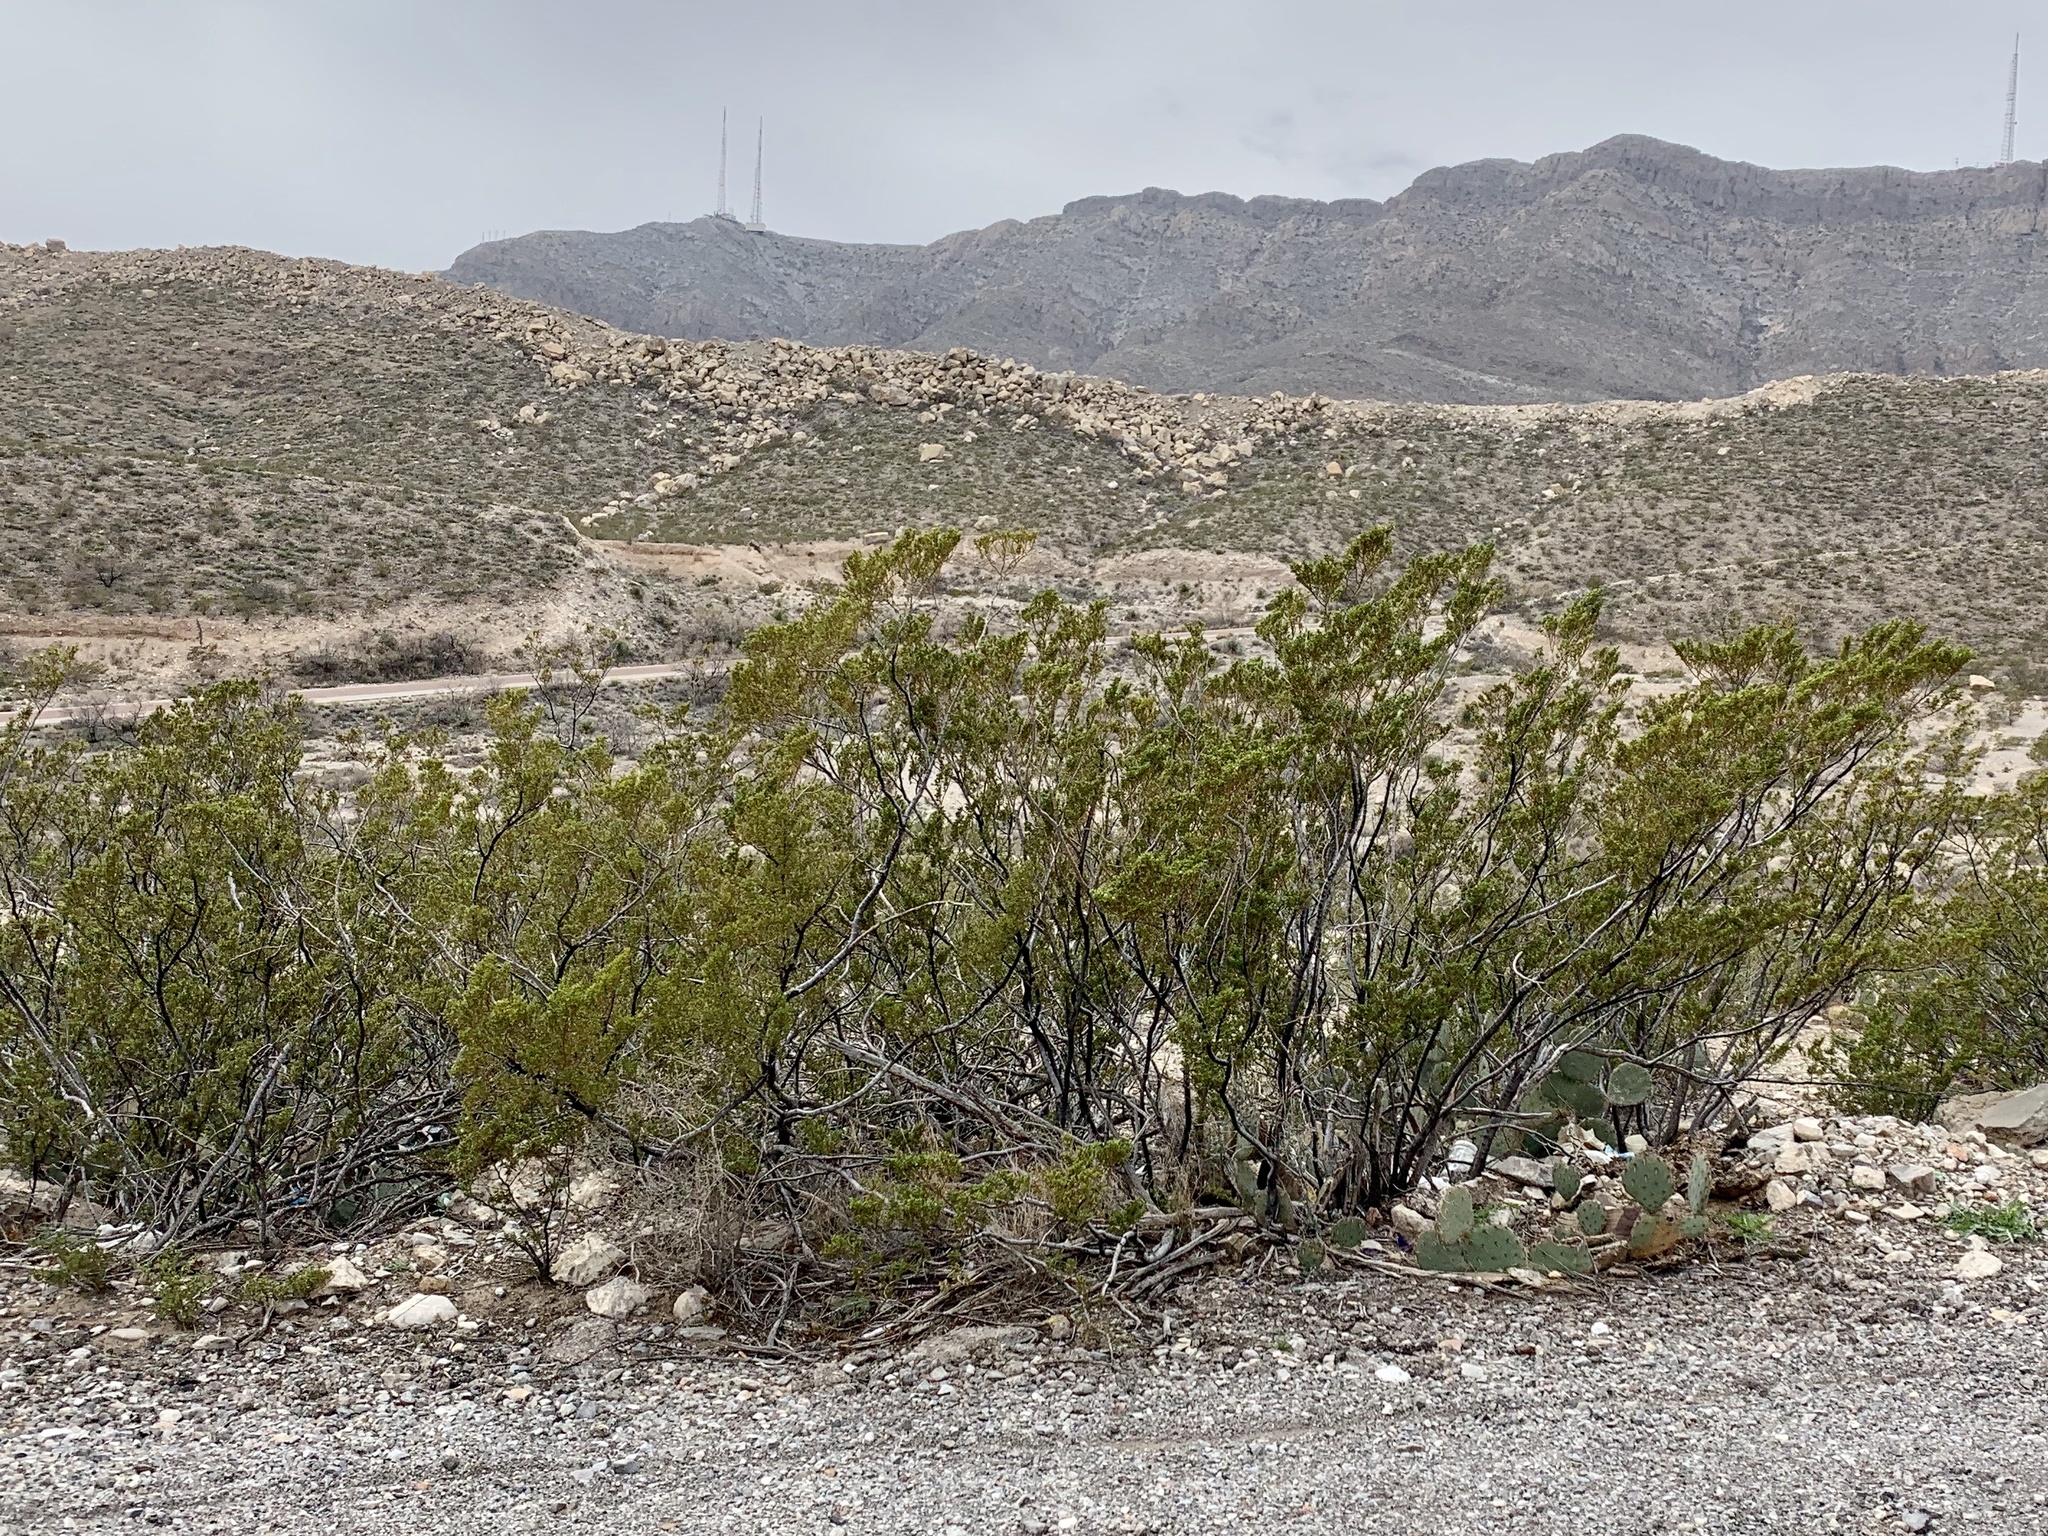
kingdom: Plantae
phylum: Tracheophyta
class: Magnoliopsida
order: Zygophyllales
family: Zygophyllaceae
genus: Larrea
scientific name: Larrea tridentata
